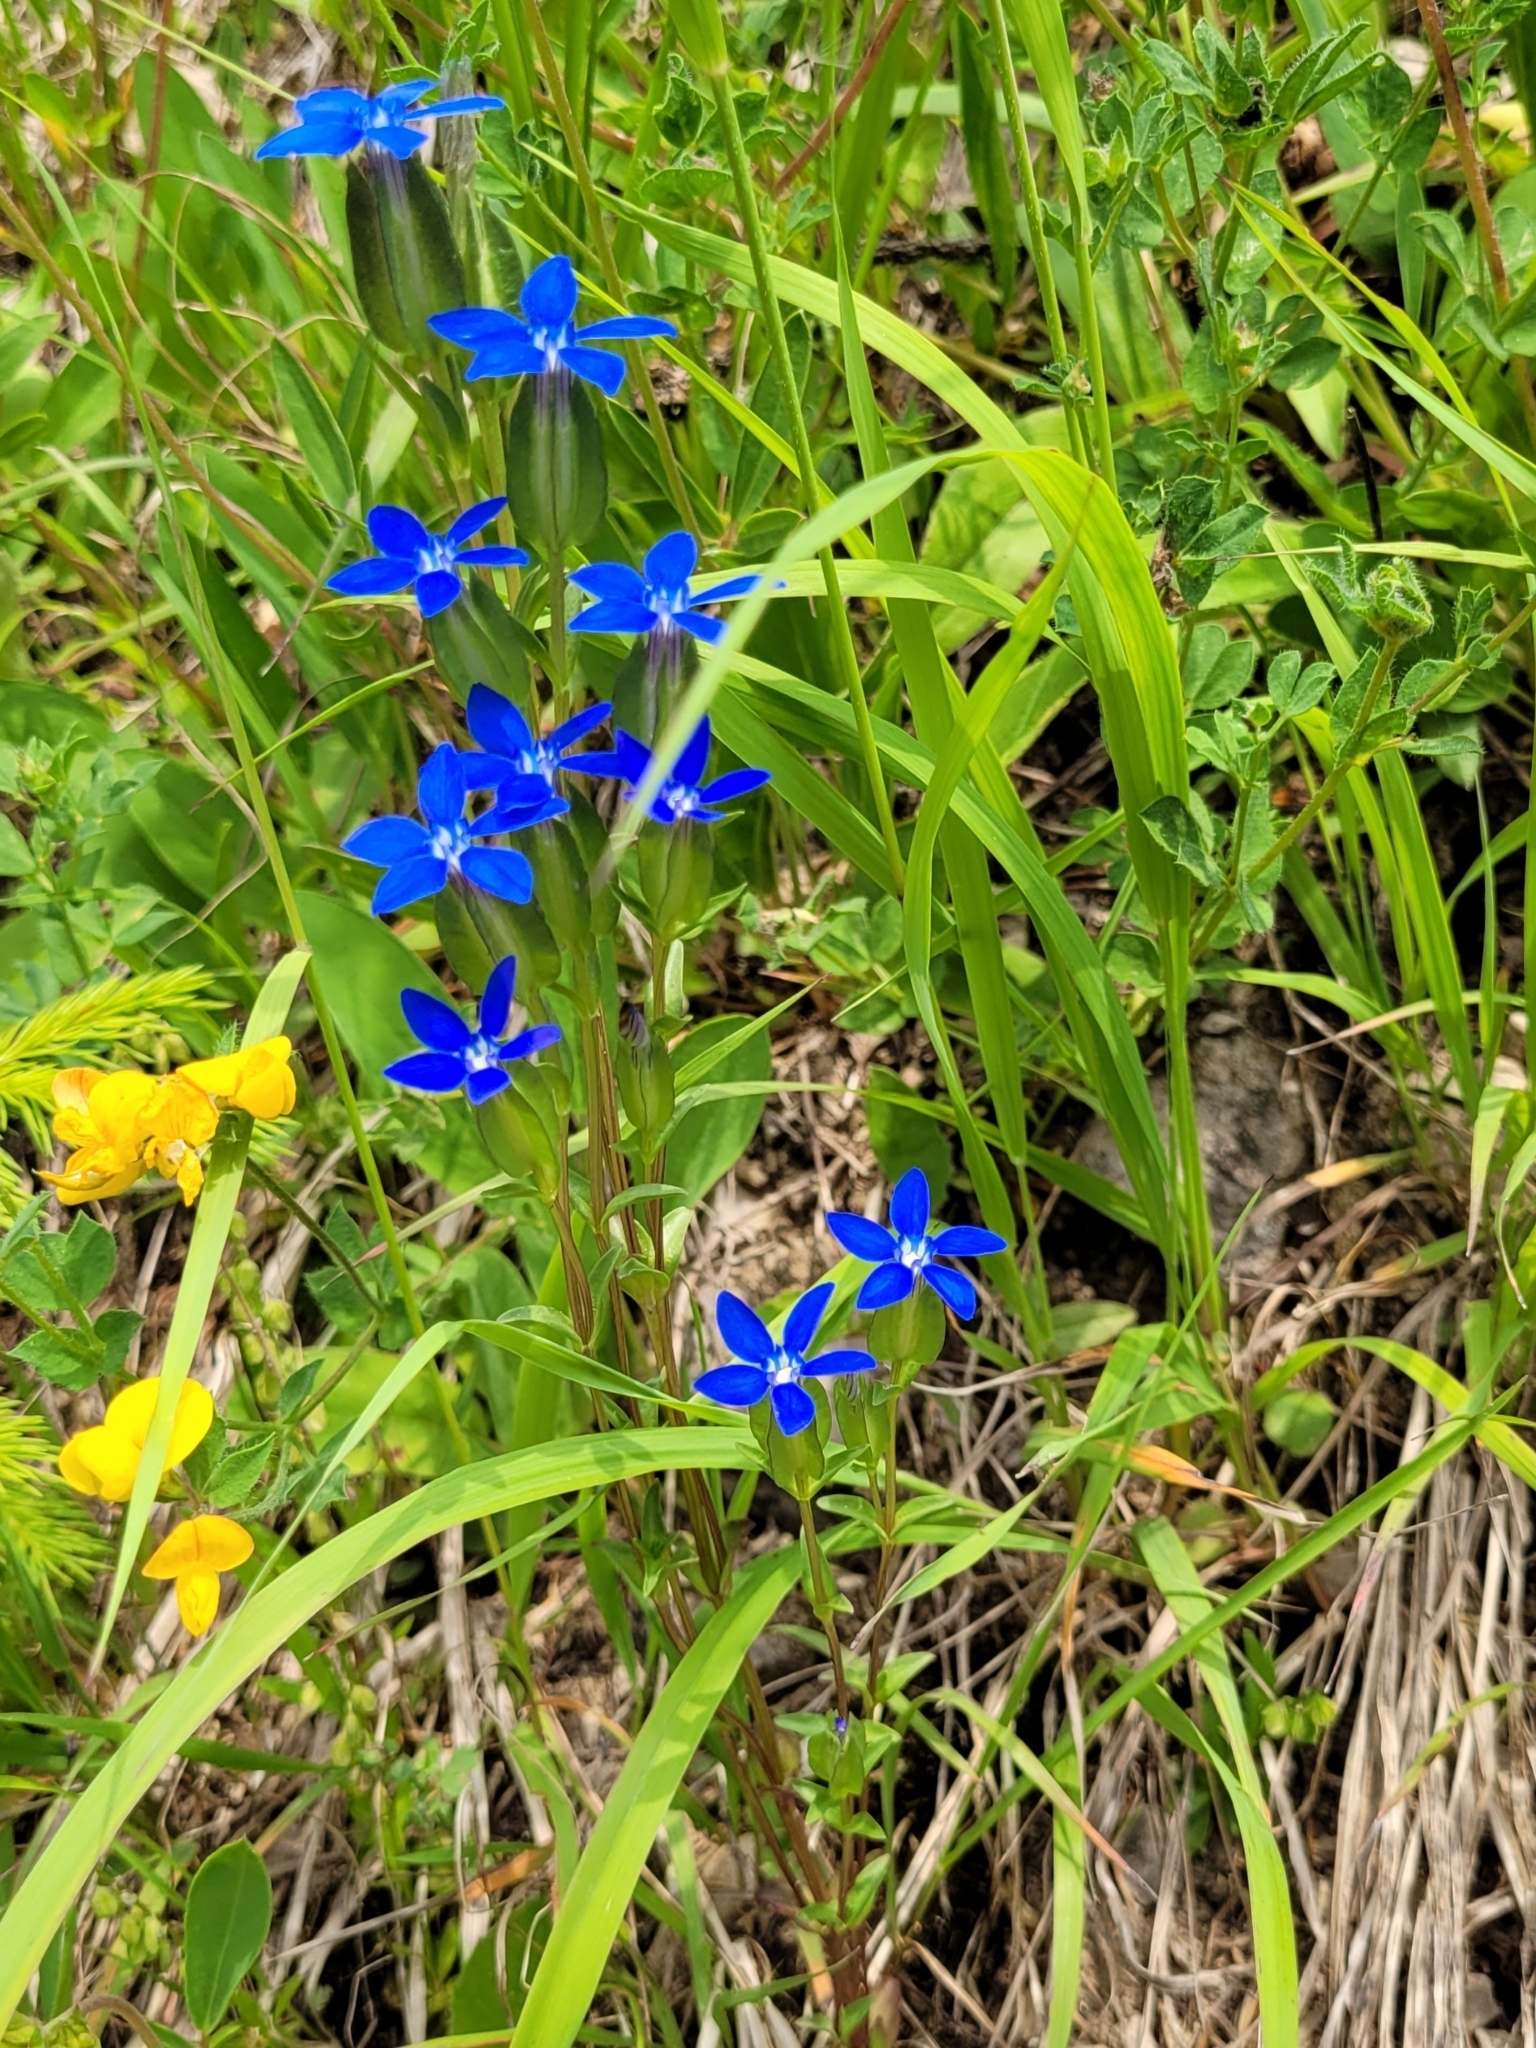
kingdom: Plantae
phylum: Tracheophyta
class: Magnoliopsida
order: Gentianales
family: Gentianaceae
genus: Gentiana
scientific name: Gentiana utriculosa
